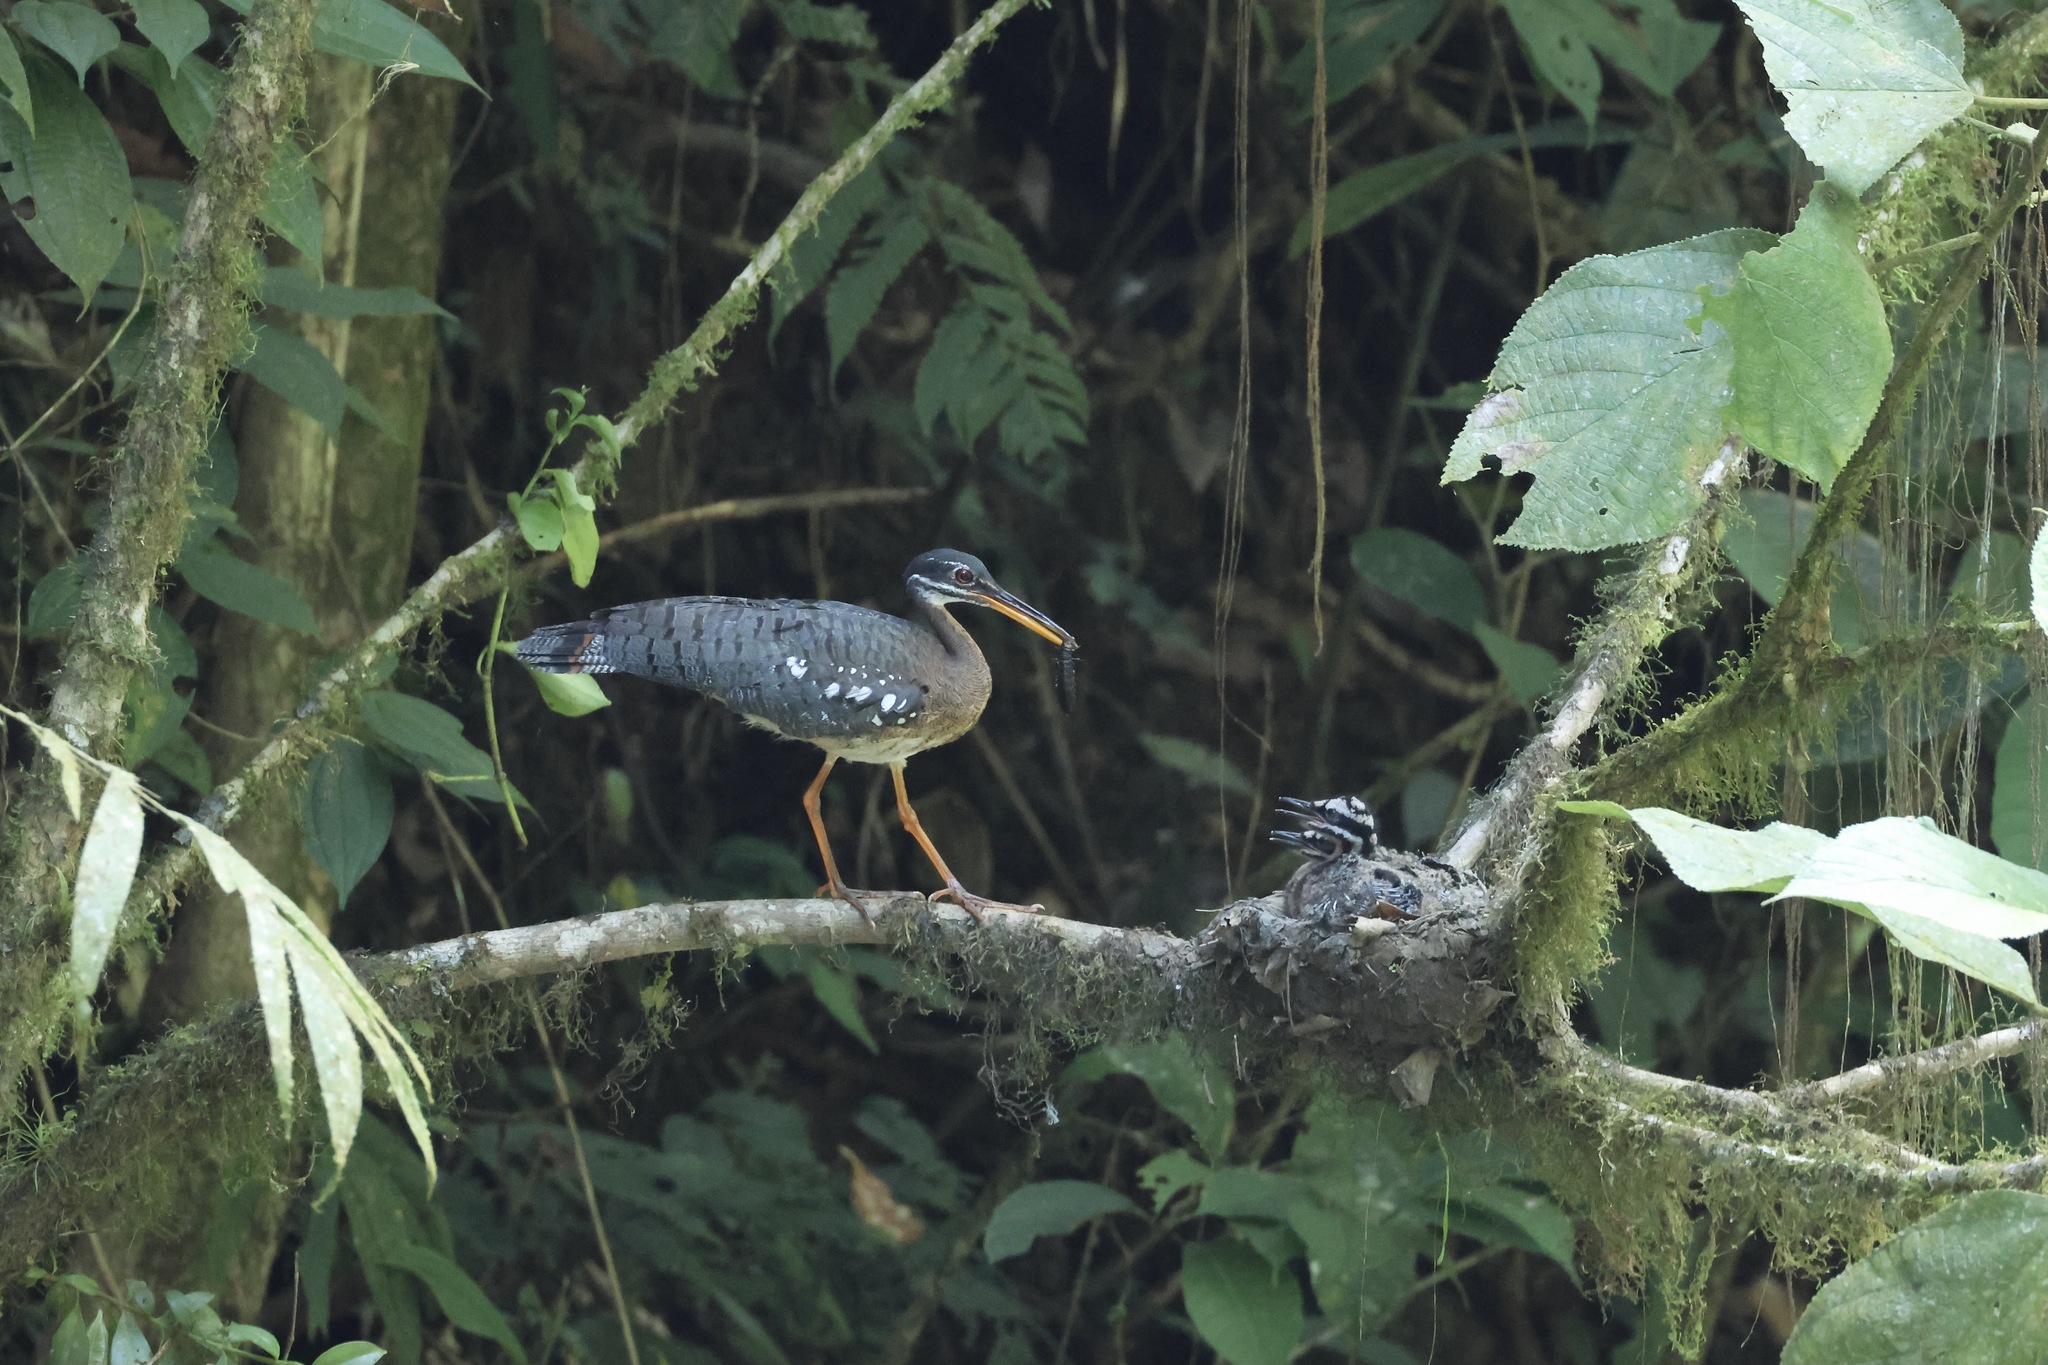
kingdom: Animalia
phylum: Chordata
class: Aves
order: Eurypygiformes
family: Eurypygidae
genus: Eurypyga
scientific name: Eurypyga helias
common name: Sunbittern
